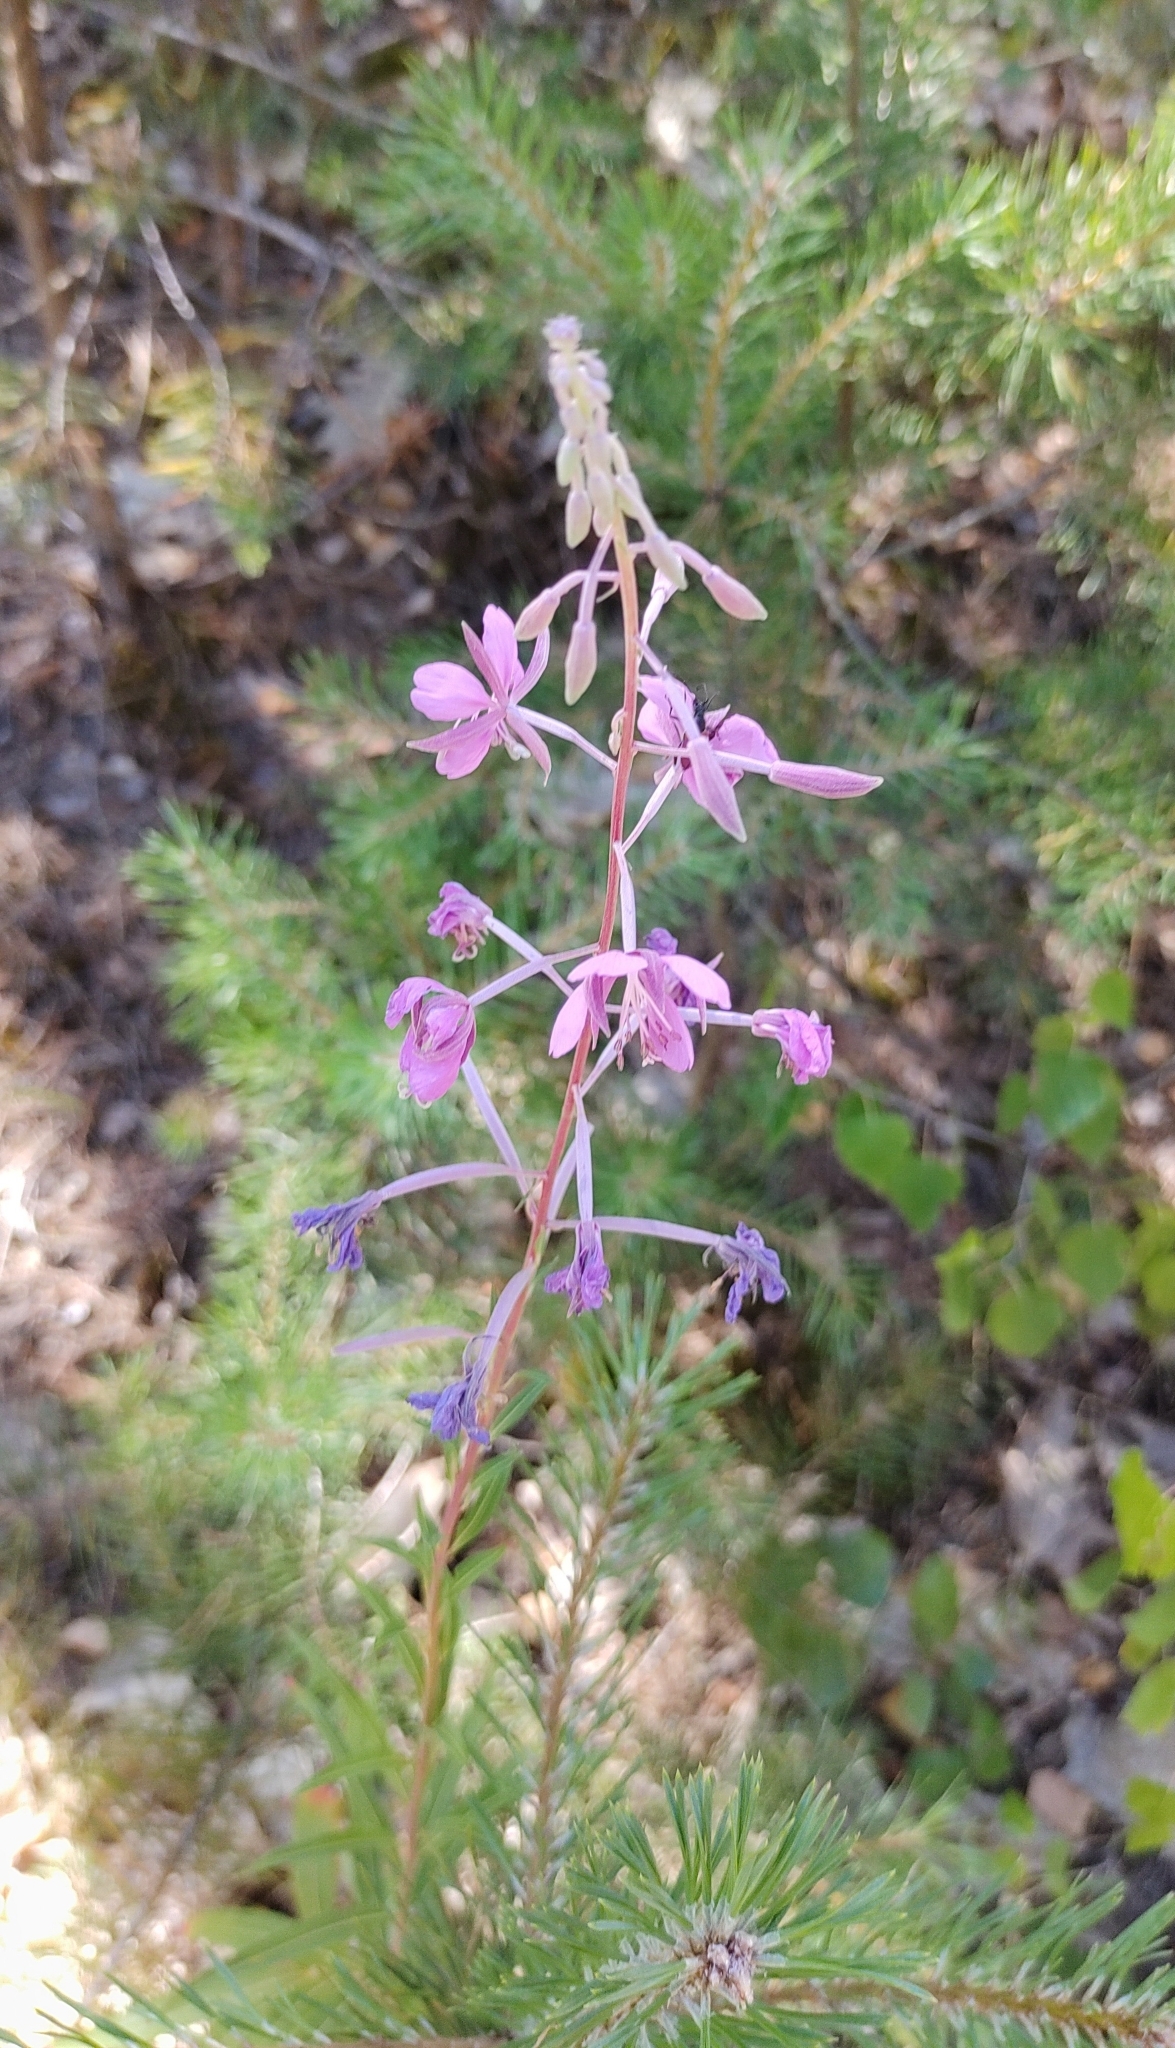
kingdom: Plantae
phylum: Tracheophyta
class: Magnoliopsida
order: Myrtales
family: Onagraceae
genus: Chamaenerion
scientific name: Chamaenerion angustifolium
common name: Fireweed
